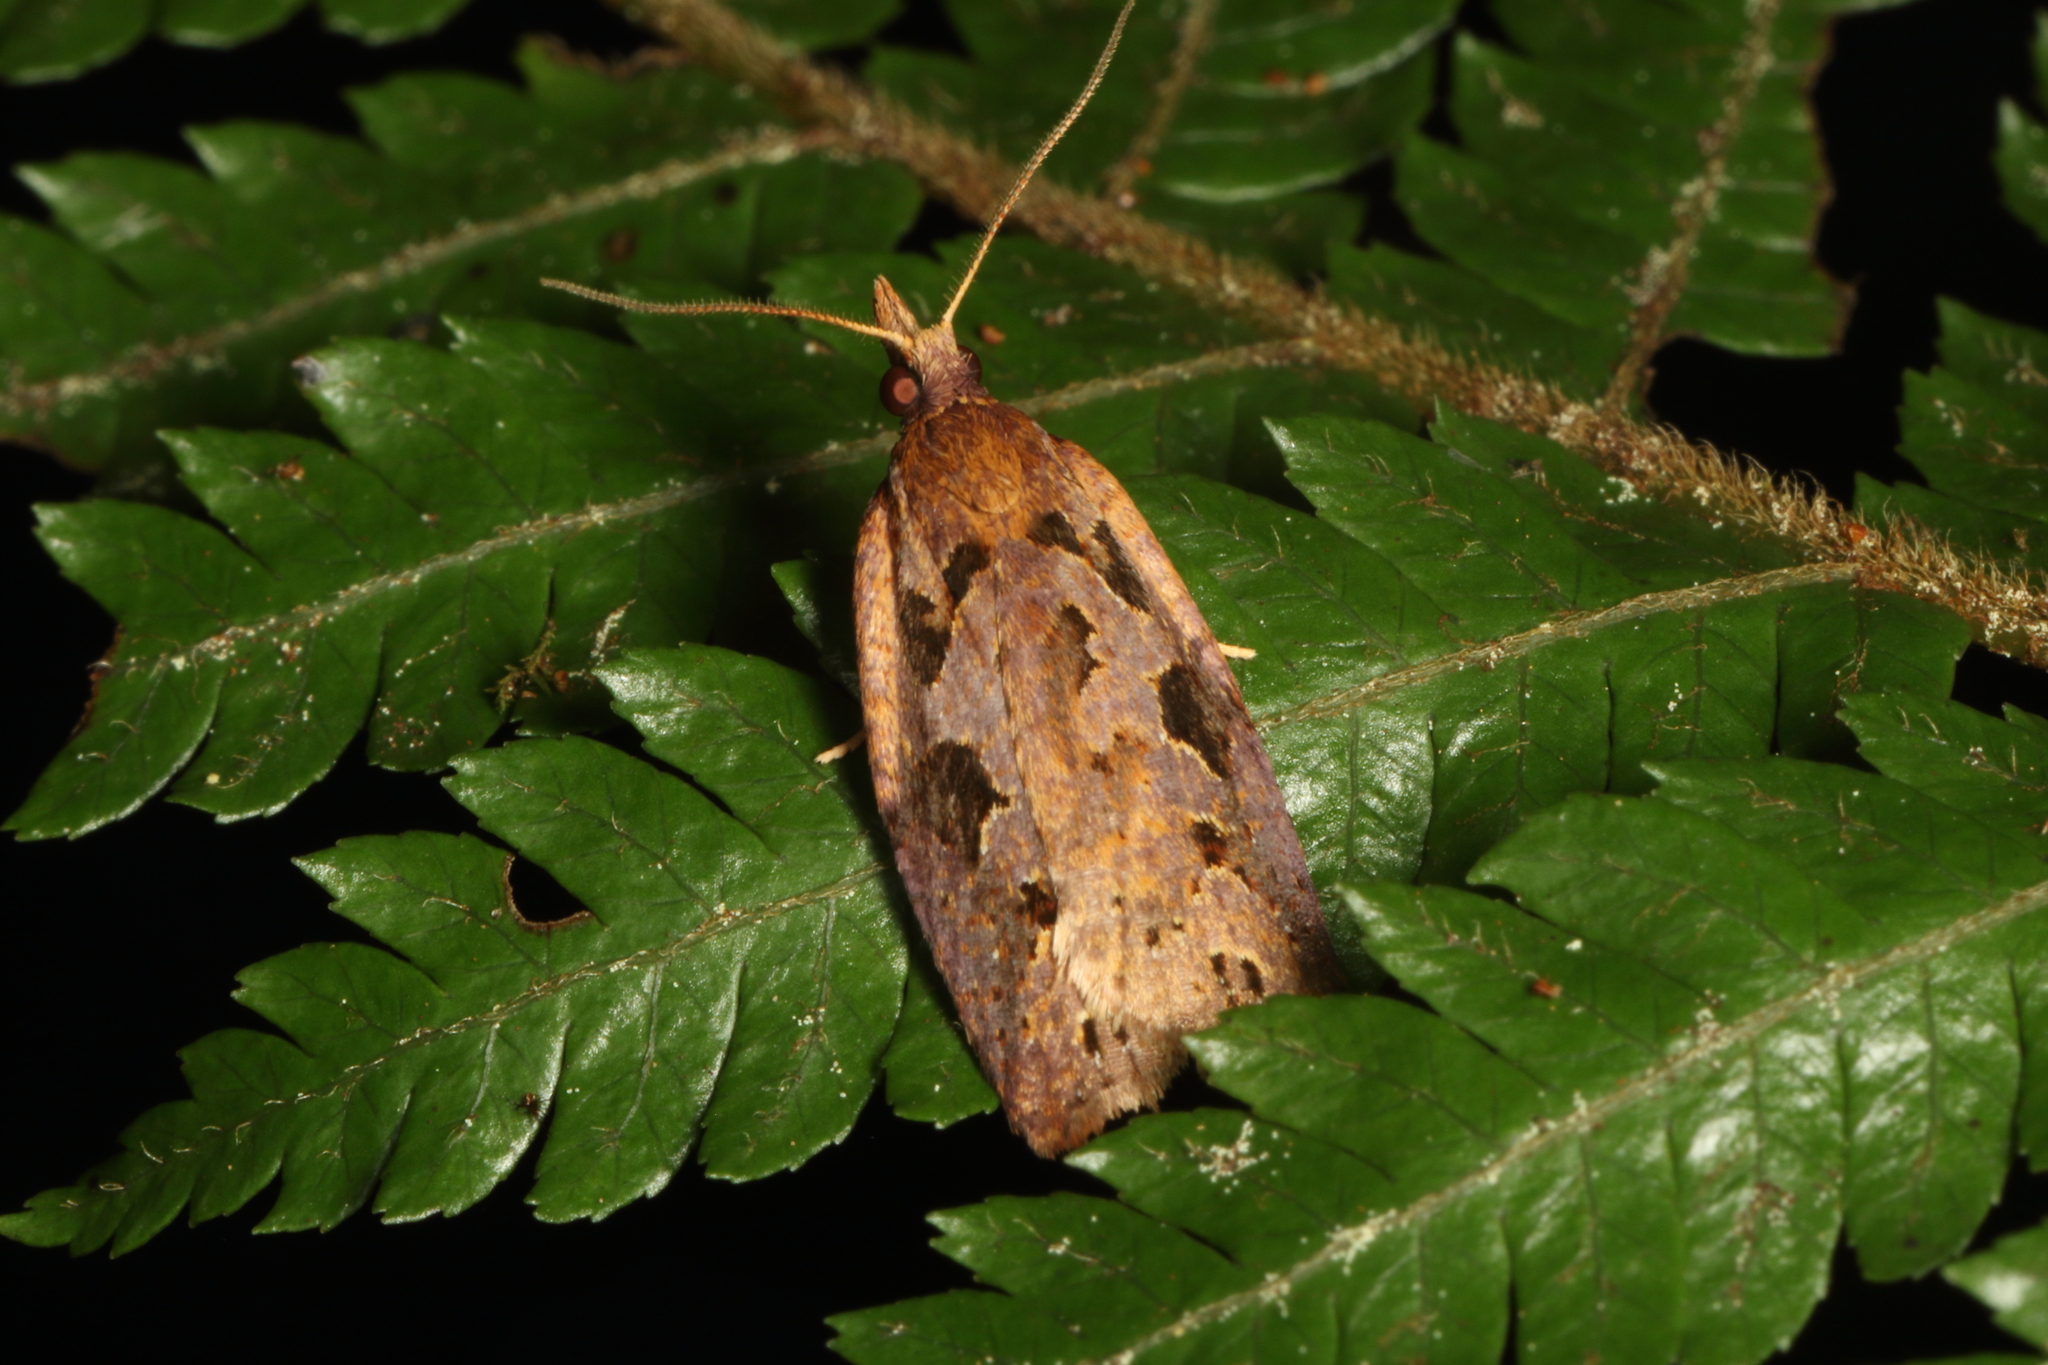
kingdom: Animalia
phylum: Arthropoda
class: Insecta
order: Lepidoptera
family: Tortricidae
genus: Ctenopseustis
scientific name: Ctenopseustis fraterna
